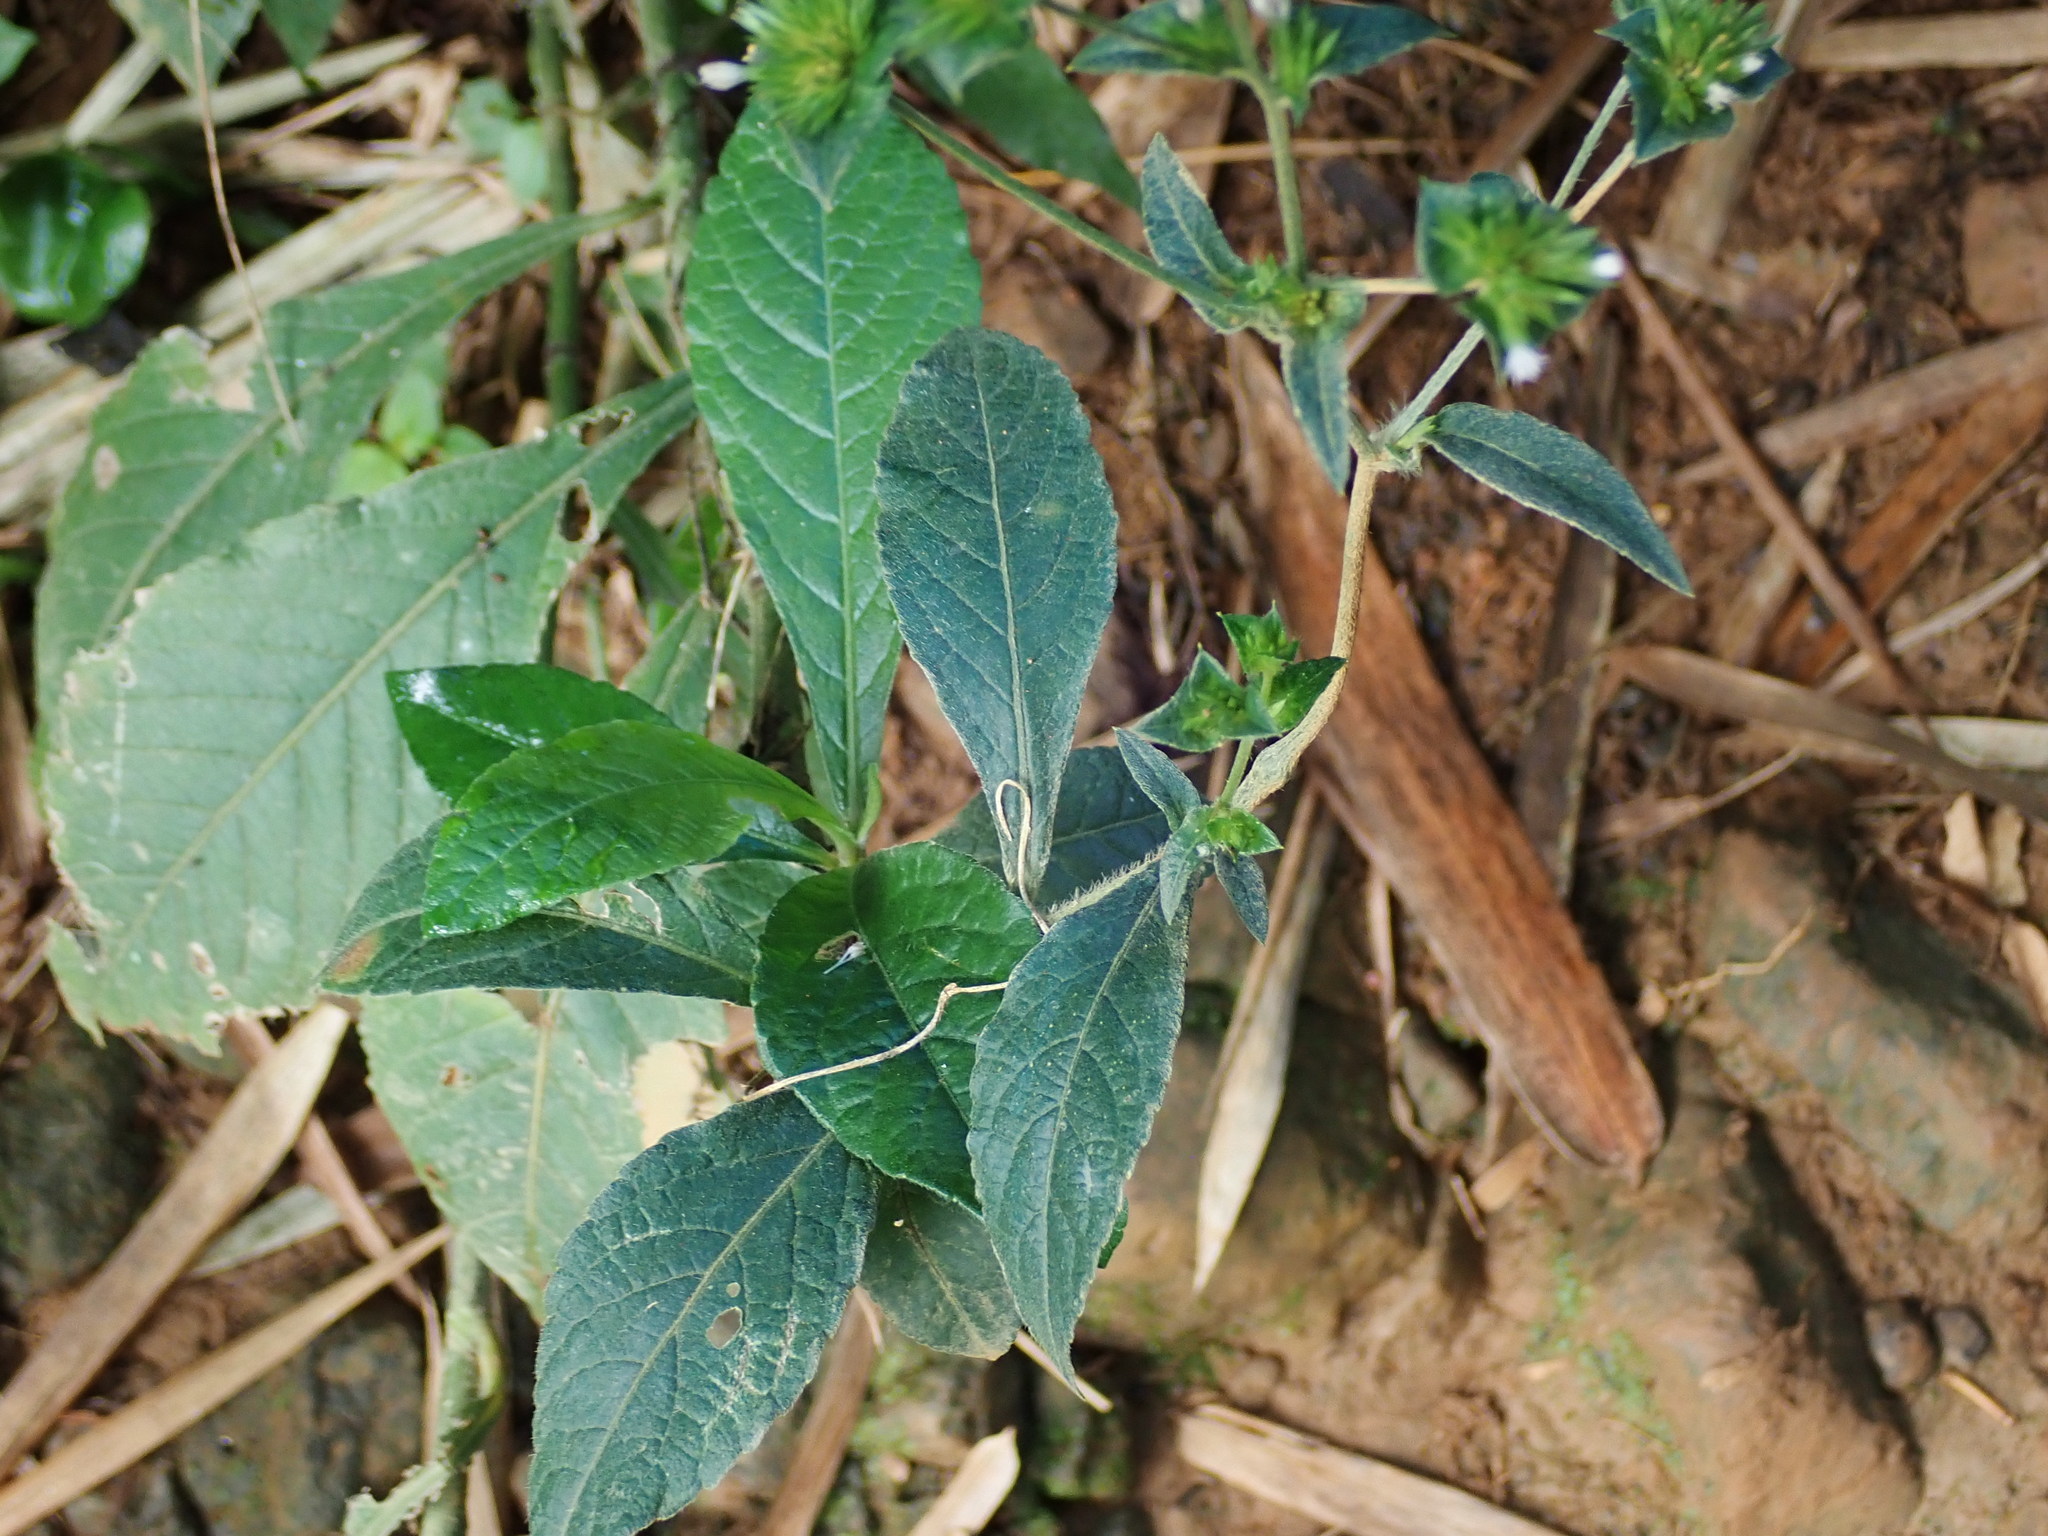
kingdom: Plantae
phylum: Tracheophyta
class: Magnoliopsida
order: Asterales
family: Asteraceae
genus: Elephantopus
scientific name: Elephantopus mollis
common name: Soft elephantsfoot
